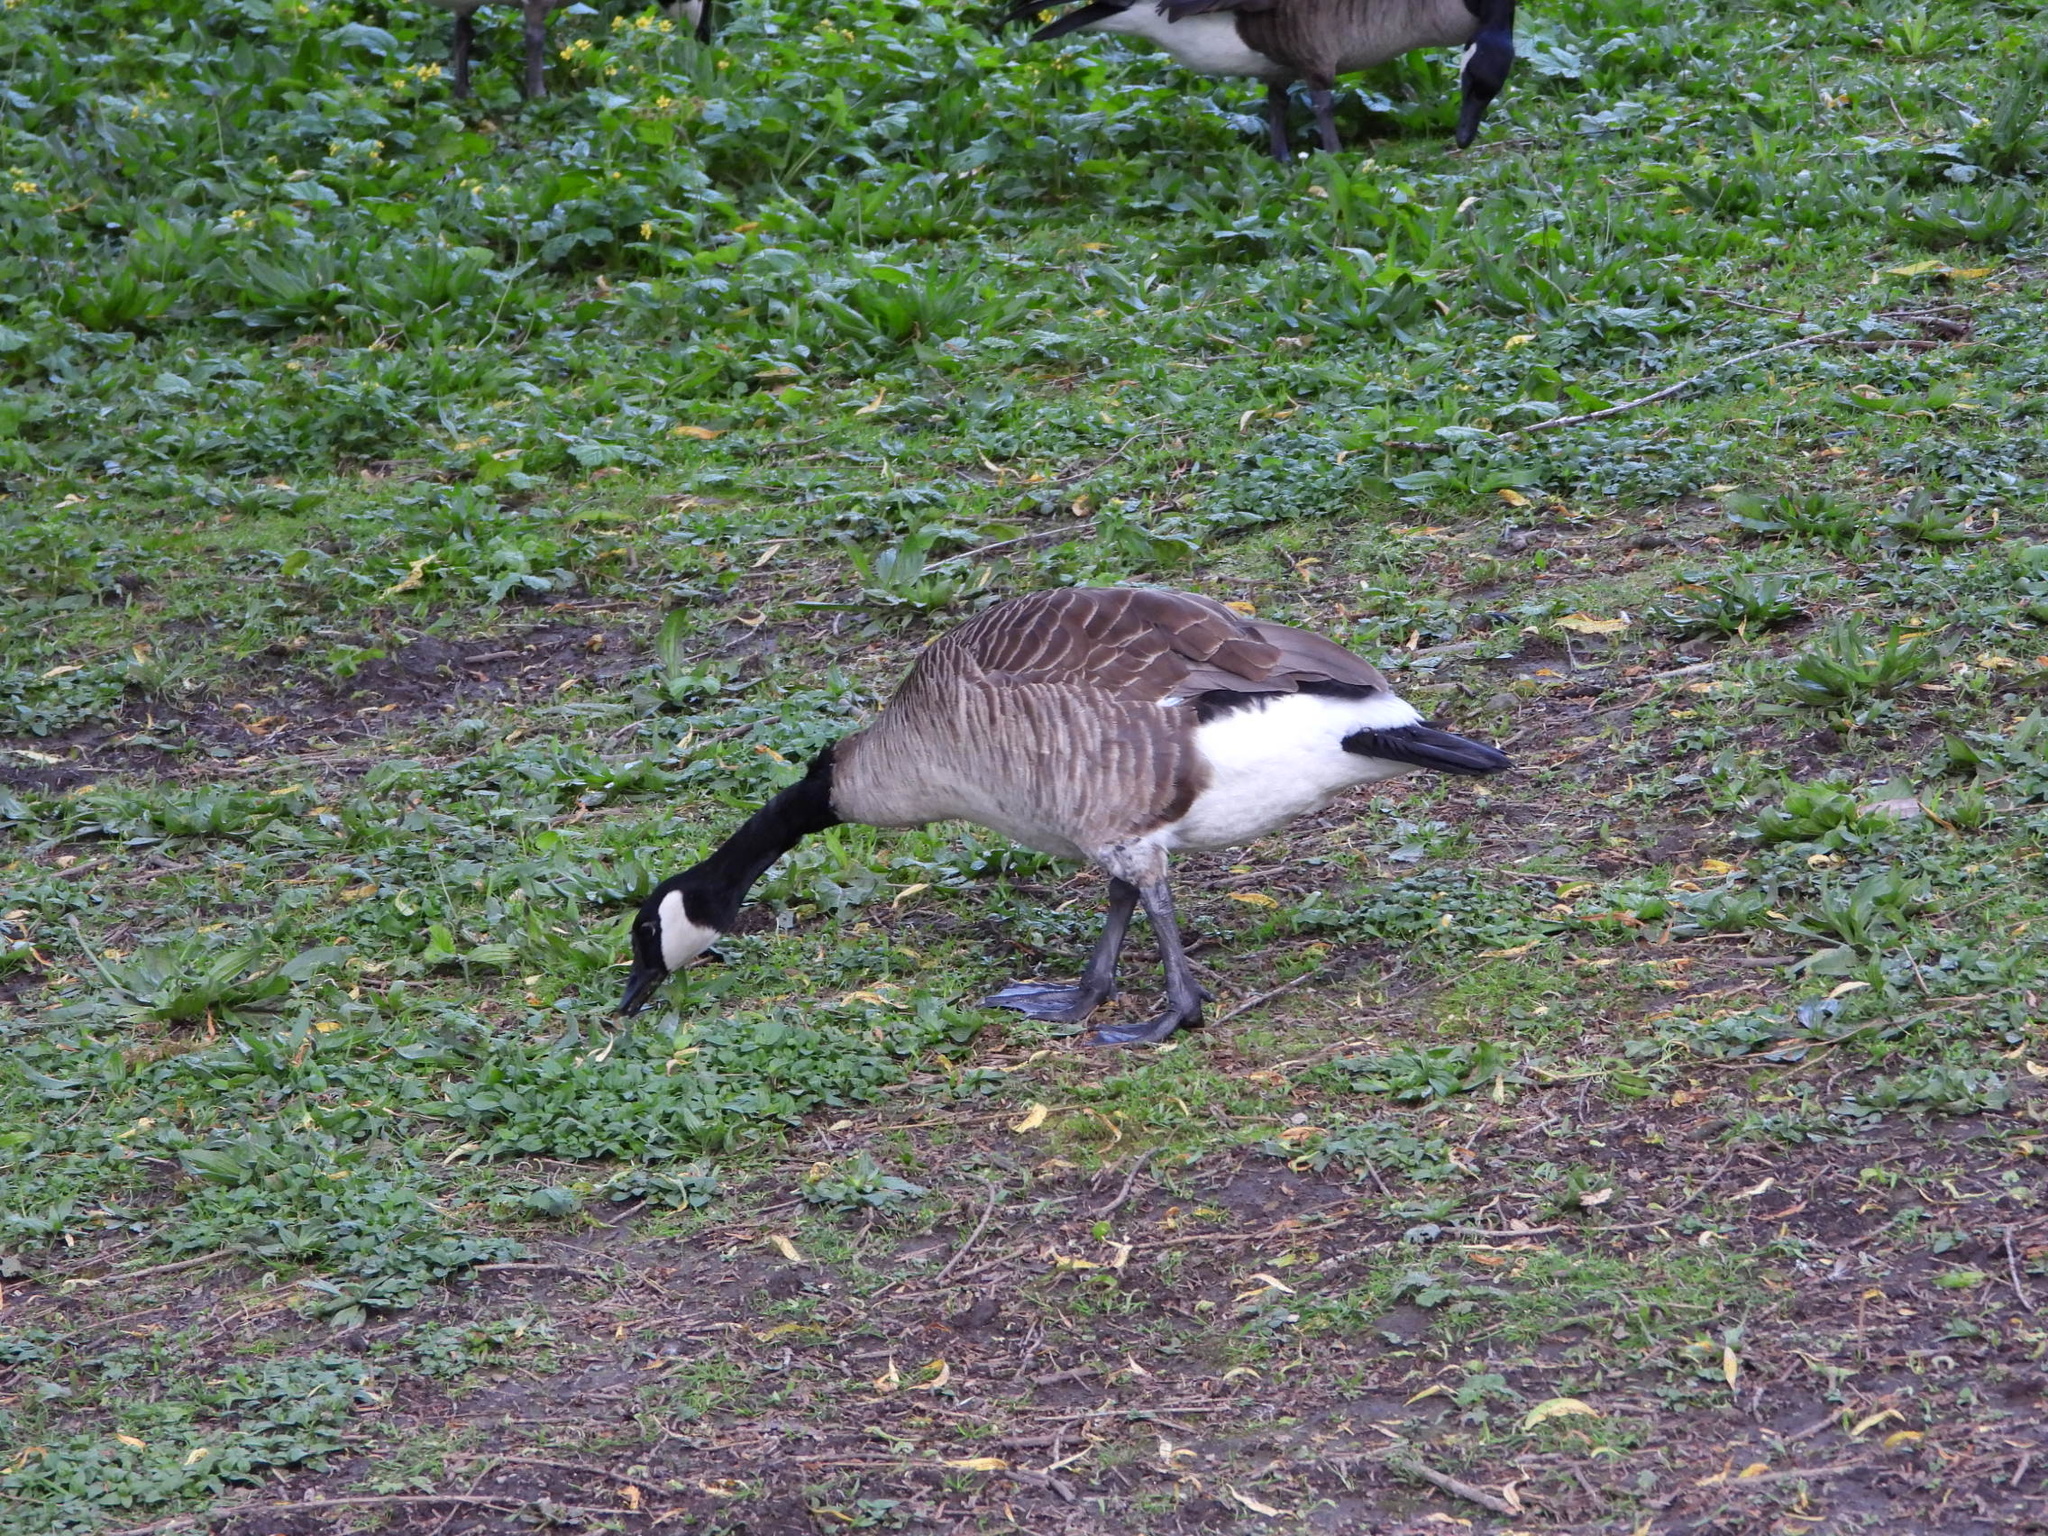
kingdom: Animalia
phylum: Chordata
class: Aves
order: Anseriformes
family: Anatidae
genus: Branta
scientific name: Branta canadensis
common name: Canada goose
